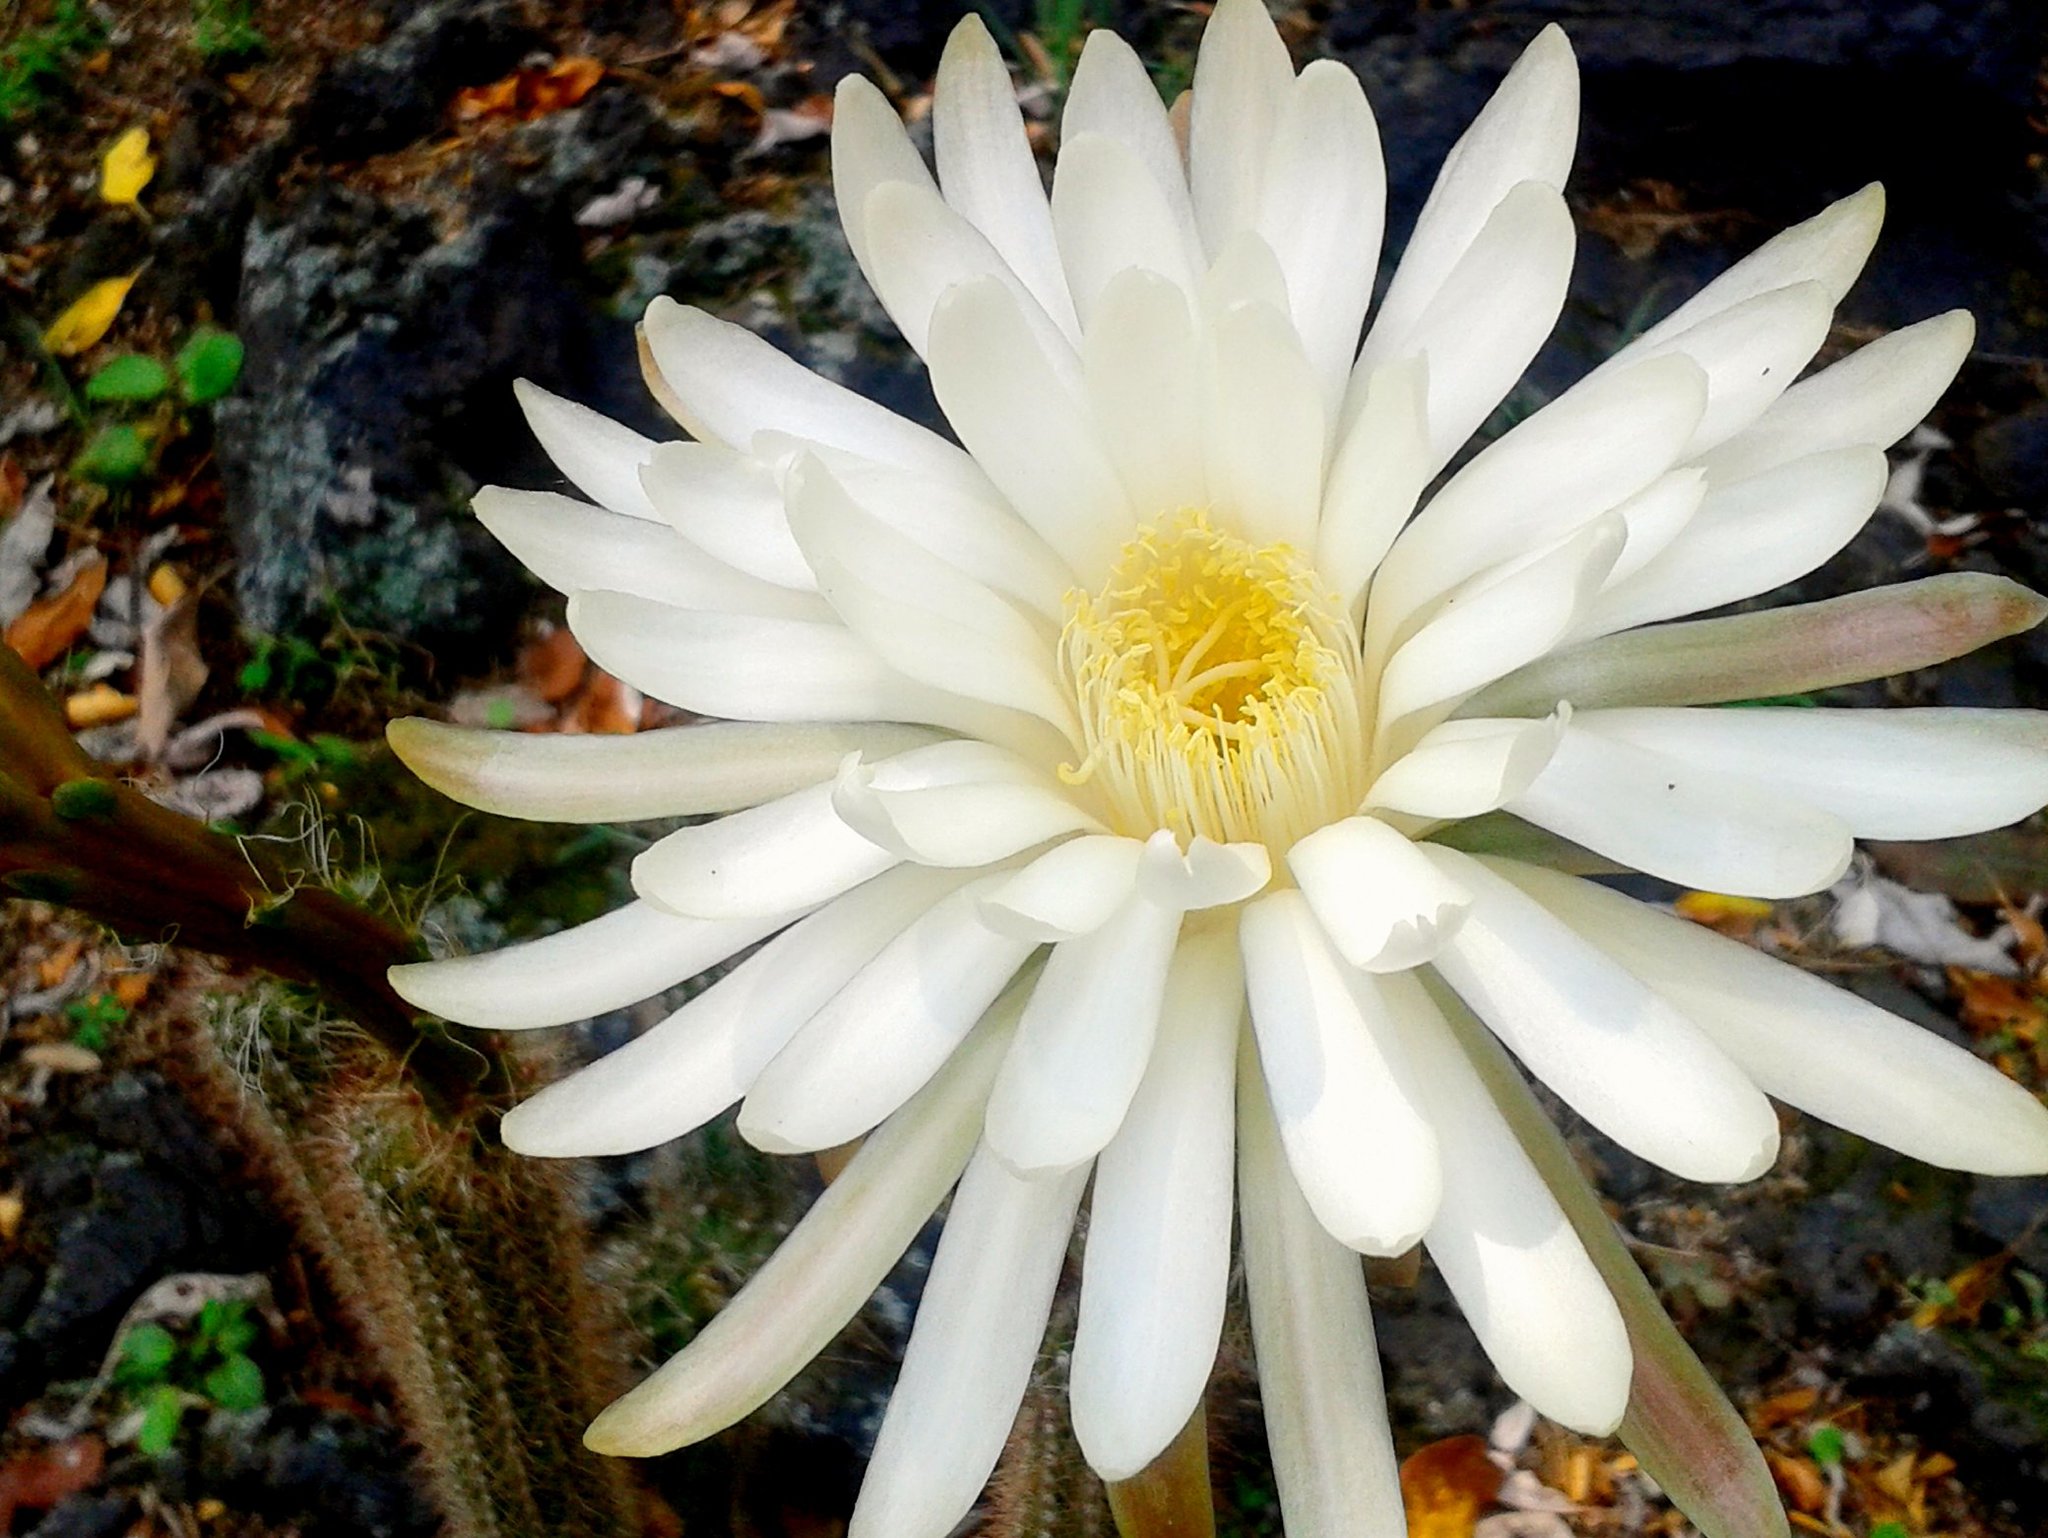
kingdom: Plantae
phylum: Tracheophyta
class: Magnoliopsida
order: Caryophyllales
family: Cactaceae
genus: Peniocereus
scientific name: Peniocereus serpentinus
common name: Serpent cactus
